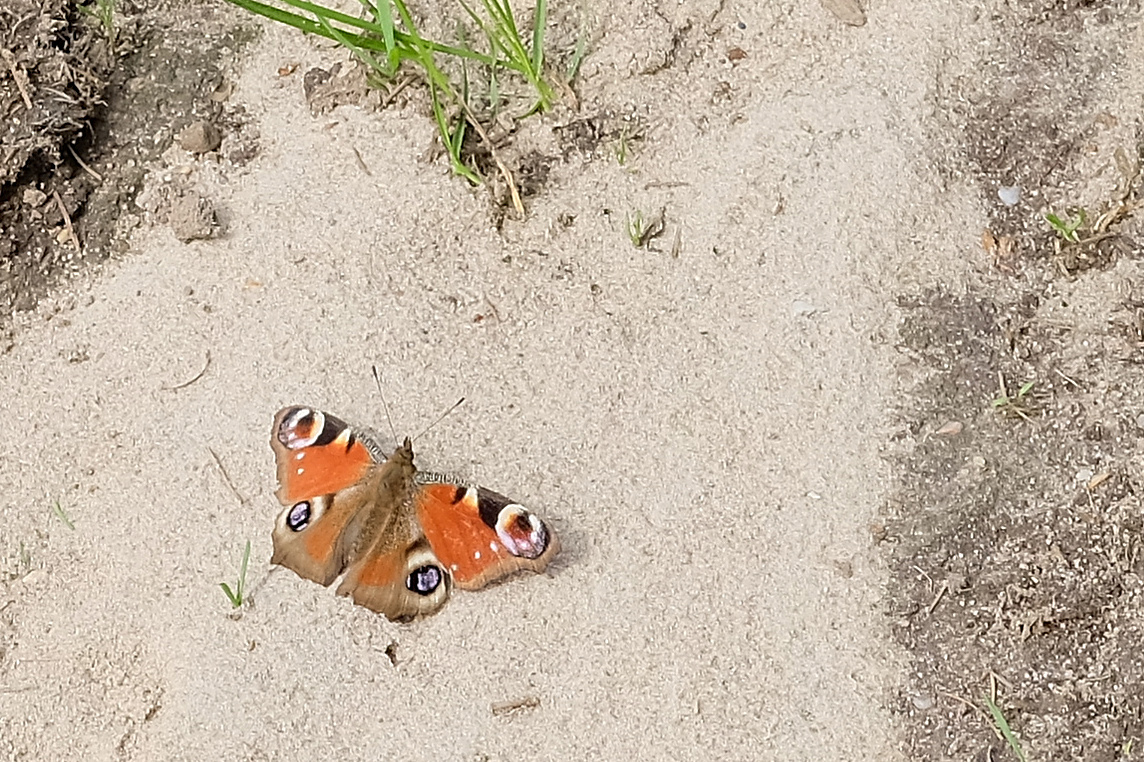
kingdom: Animalia
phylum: Arthropoda
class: Insecta
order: Lepidoptera
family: Nymphalidae
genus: Aglais
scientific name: Aglais io
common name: Peacock
